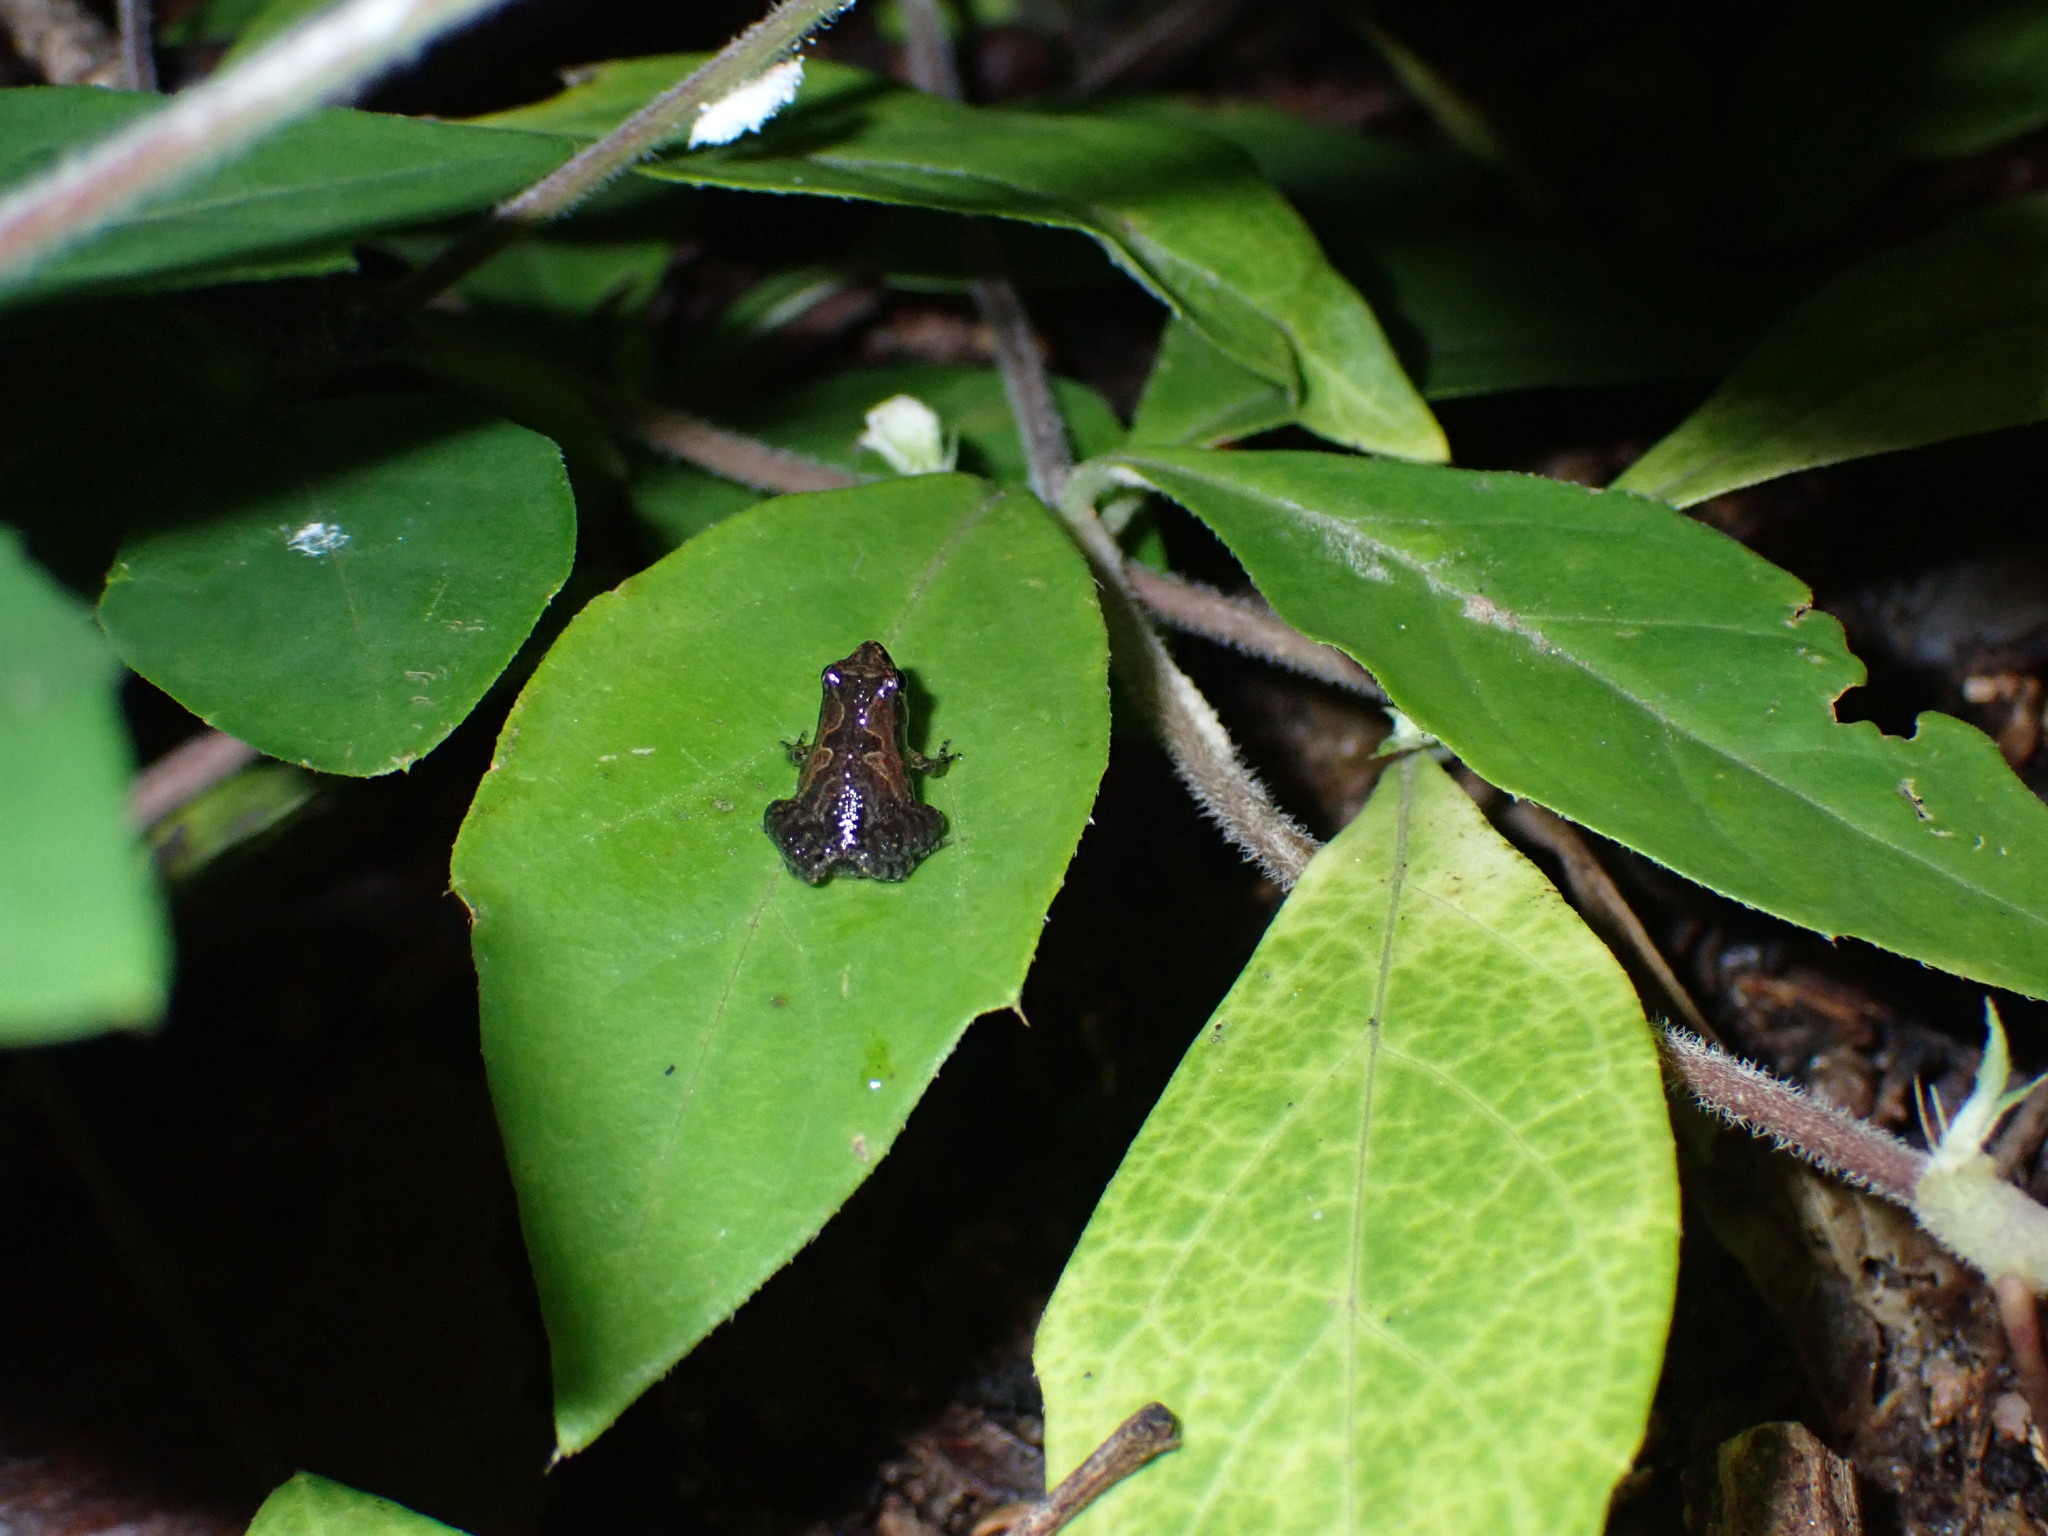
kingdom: Animalia
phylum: Chordata
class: Amphibia
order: Anura
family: Microhylidae
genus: Microhyla
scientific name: Microhyla butleri
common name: Butler’s rice frog,painted chorus frog,tubercled pygmy frog
